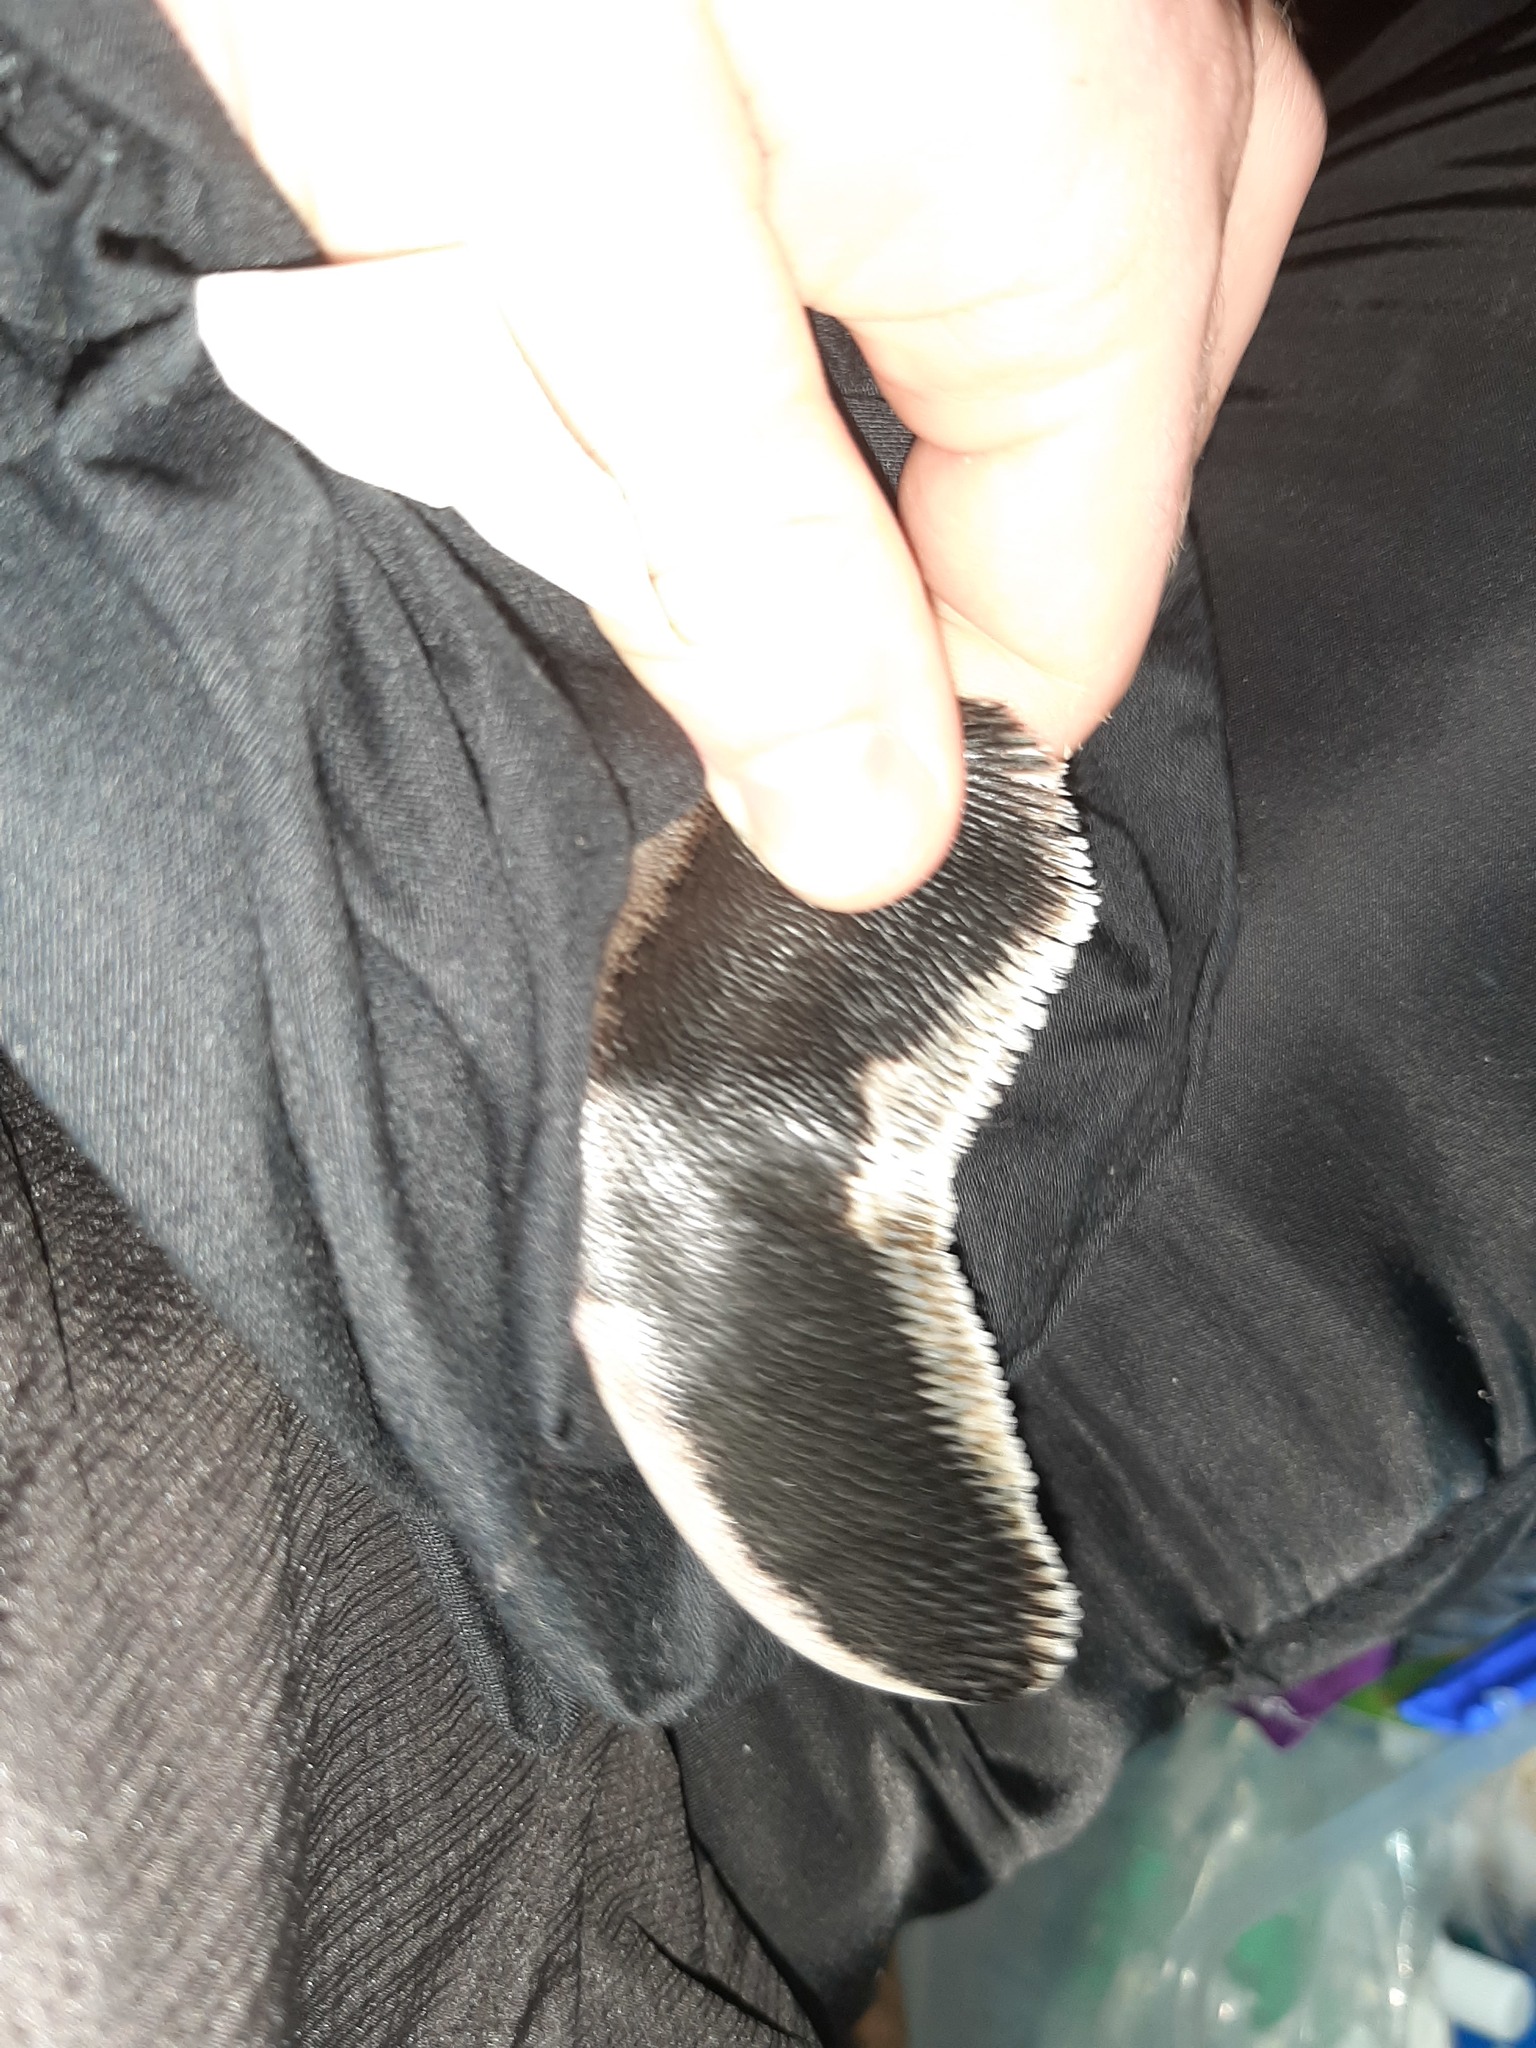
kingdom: Animalia
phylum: Chordata
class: Aves
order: Sphenisciformes
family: Spheniscidae
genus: Eudyptula
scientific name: Eudyptula minor
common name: Little penguin
